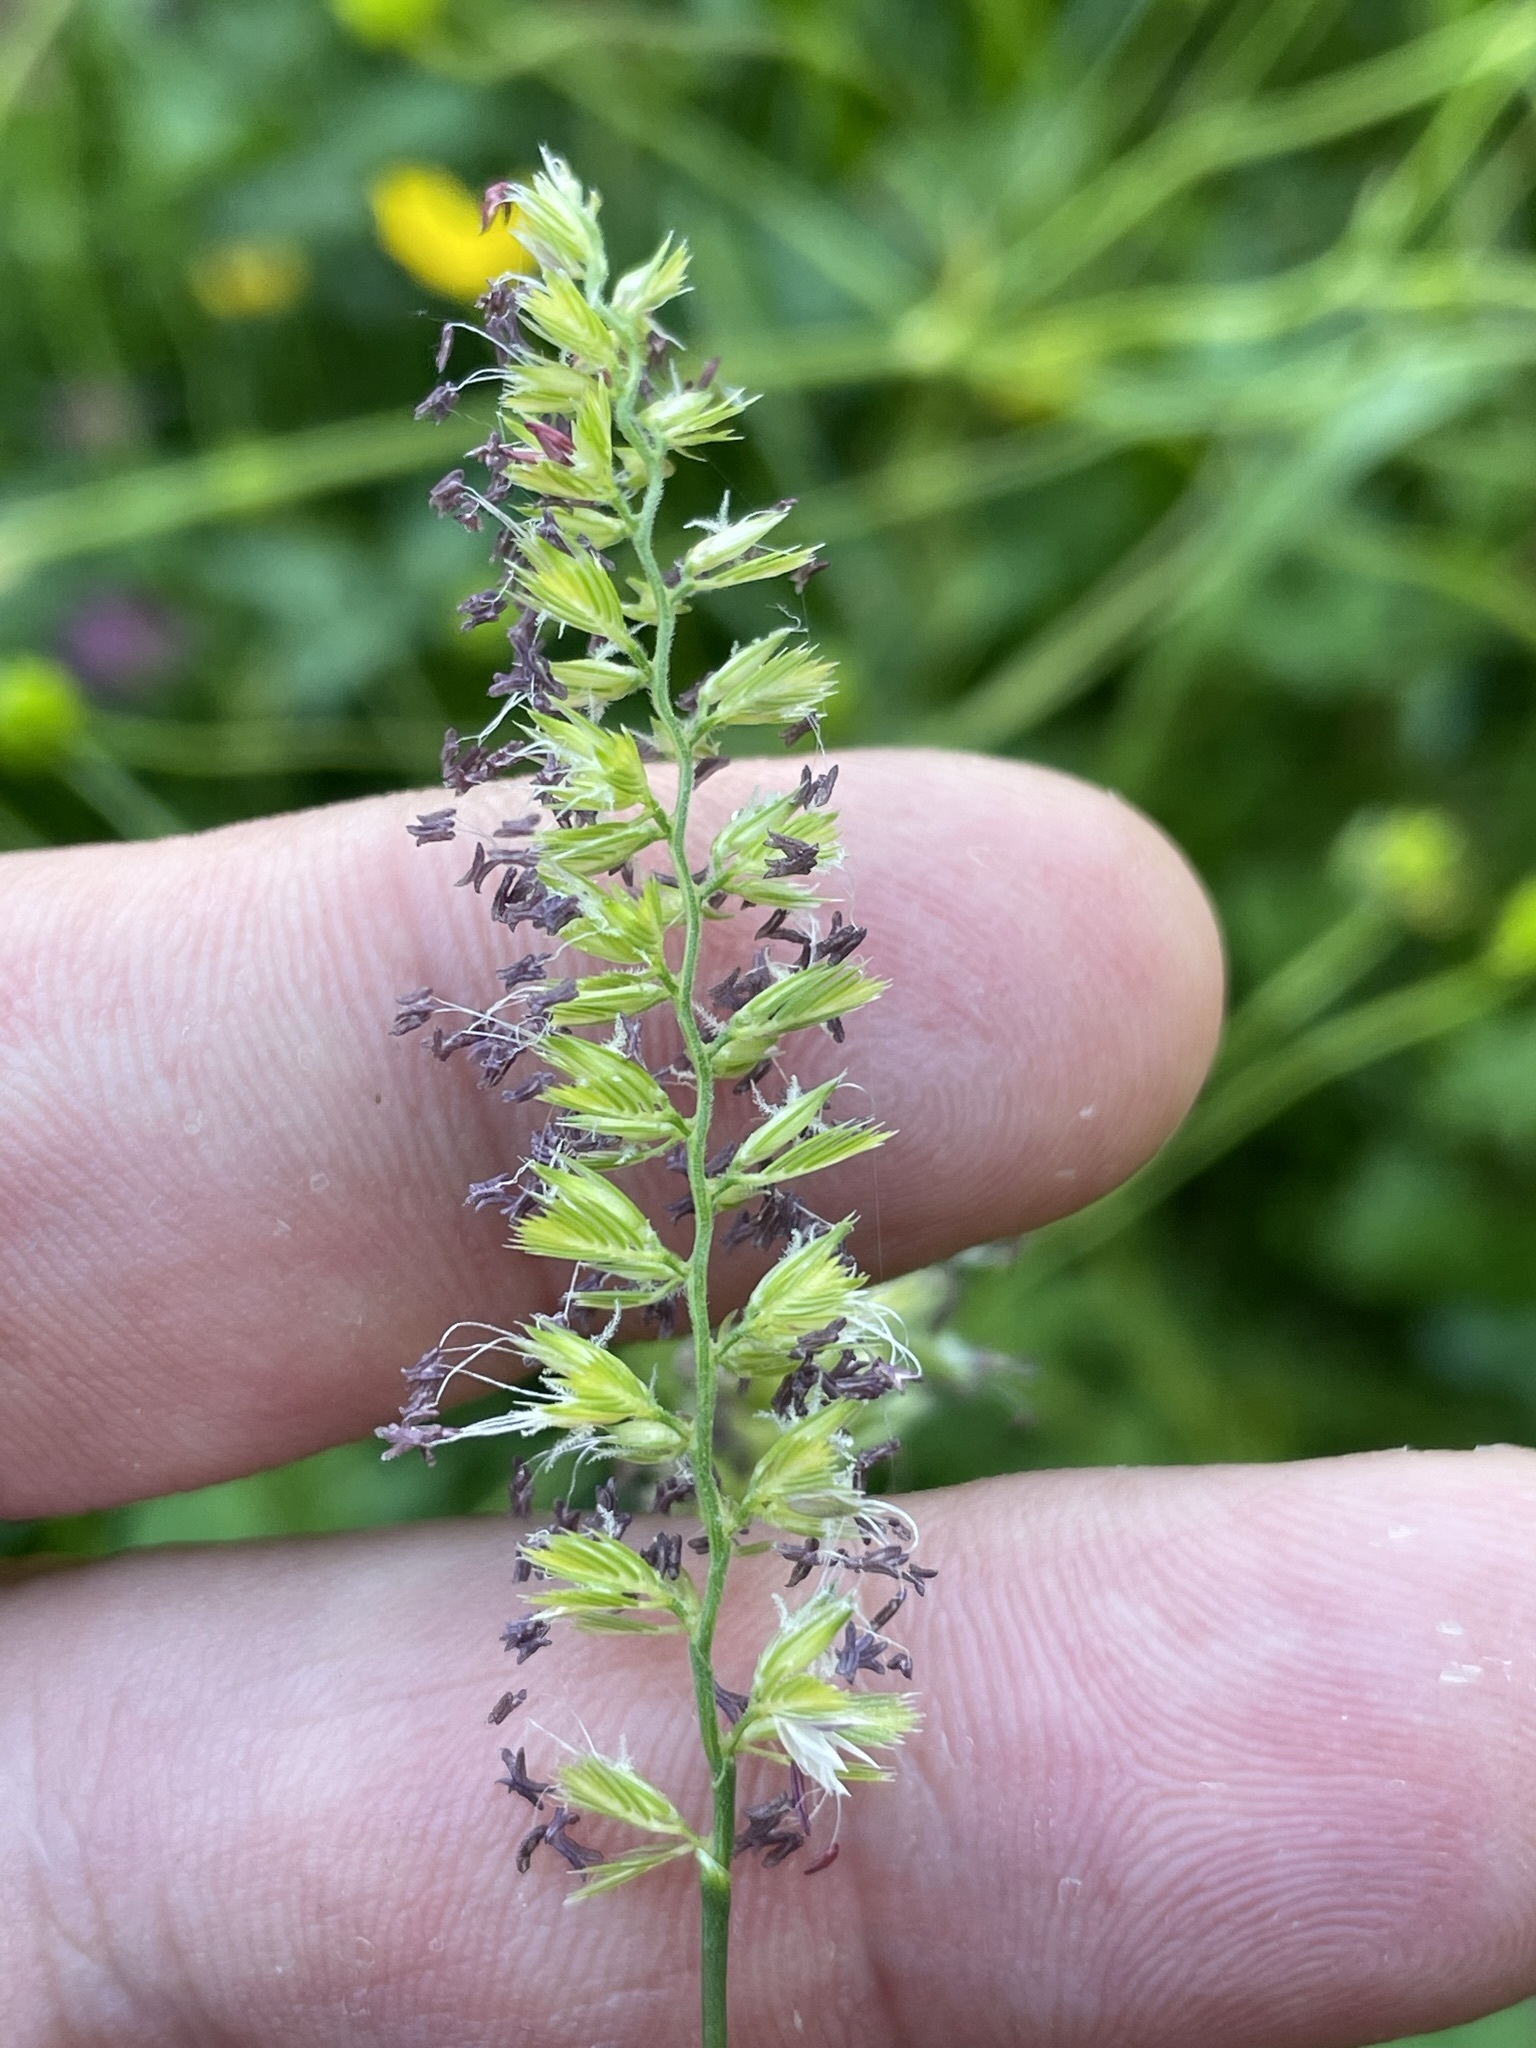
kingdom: Plantae
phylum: Tracheophyta
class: Liliopsida
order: Poales
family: Poaceae
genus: Cynosurus
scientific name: Cynosurus cristatus
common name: Crested dog's-tail
